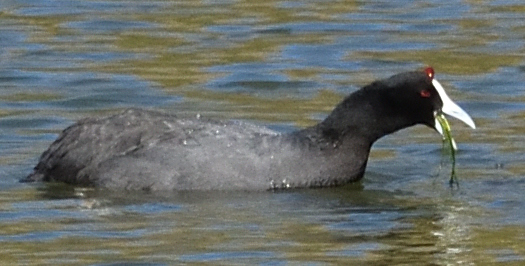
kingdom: Animalia
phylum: Chordata
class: Aves
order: Gruiformes
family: Rallidae
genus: Fulica
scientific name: Fulica cristata
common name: Red-knobbed coot
